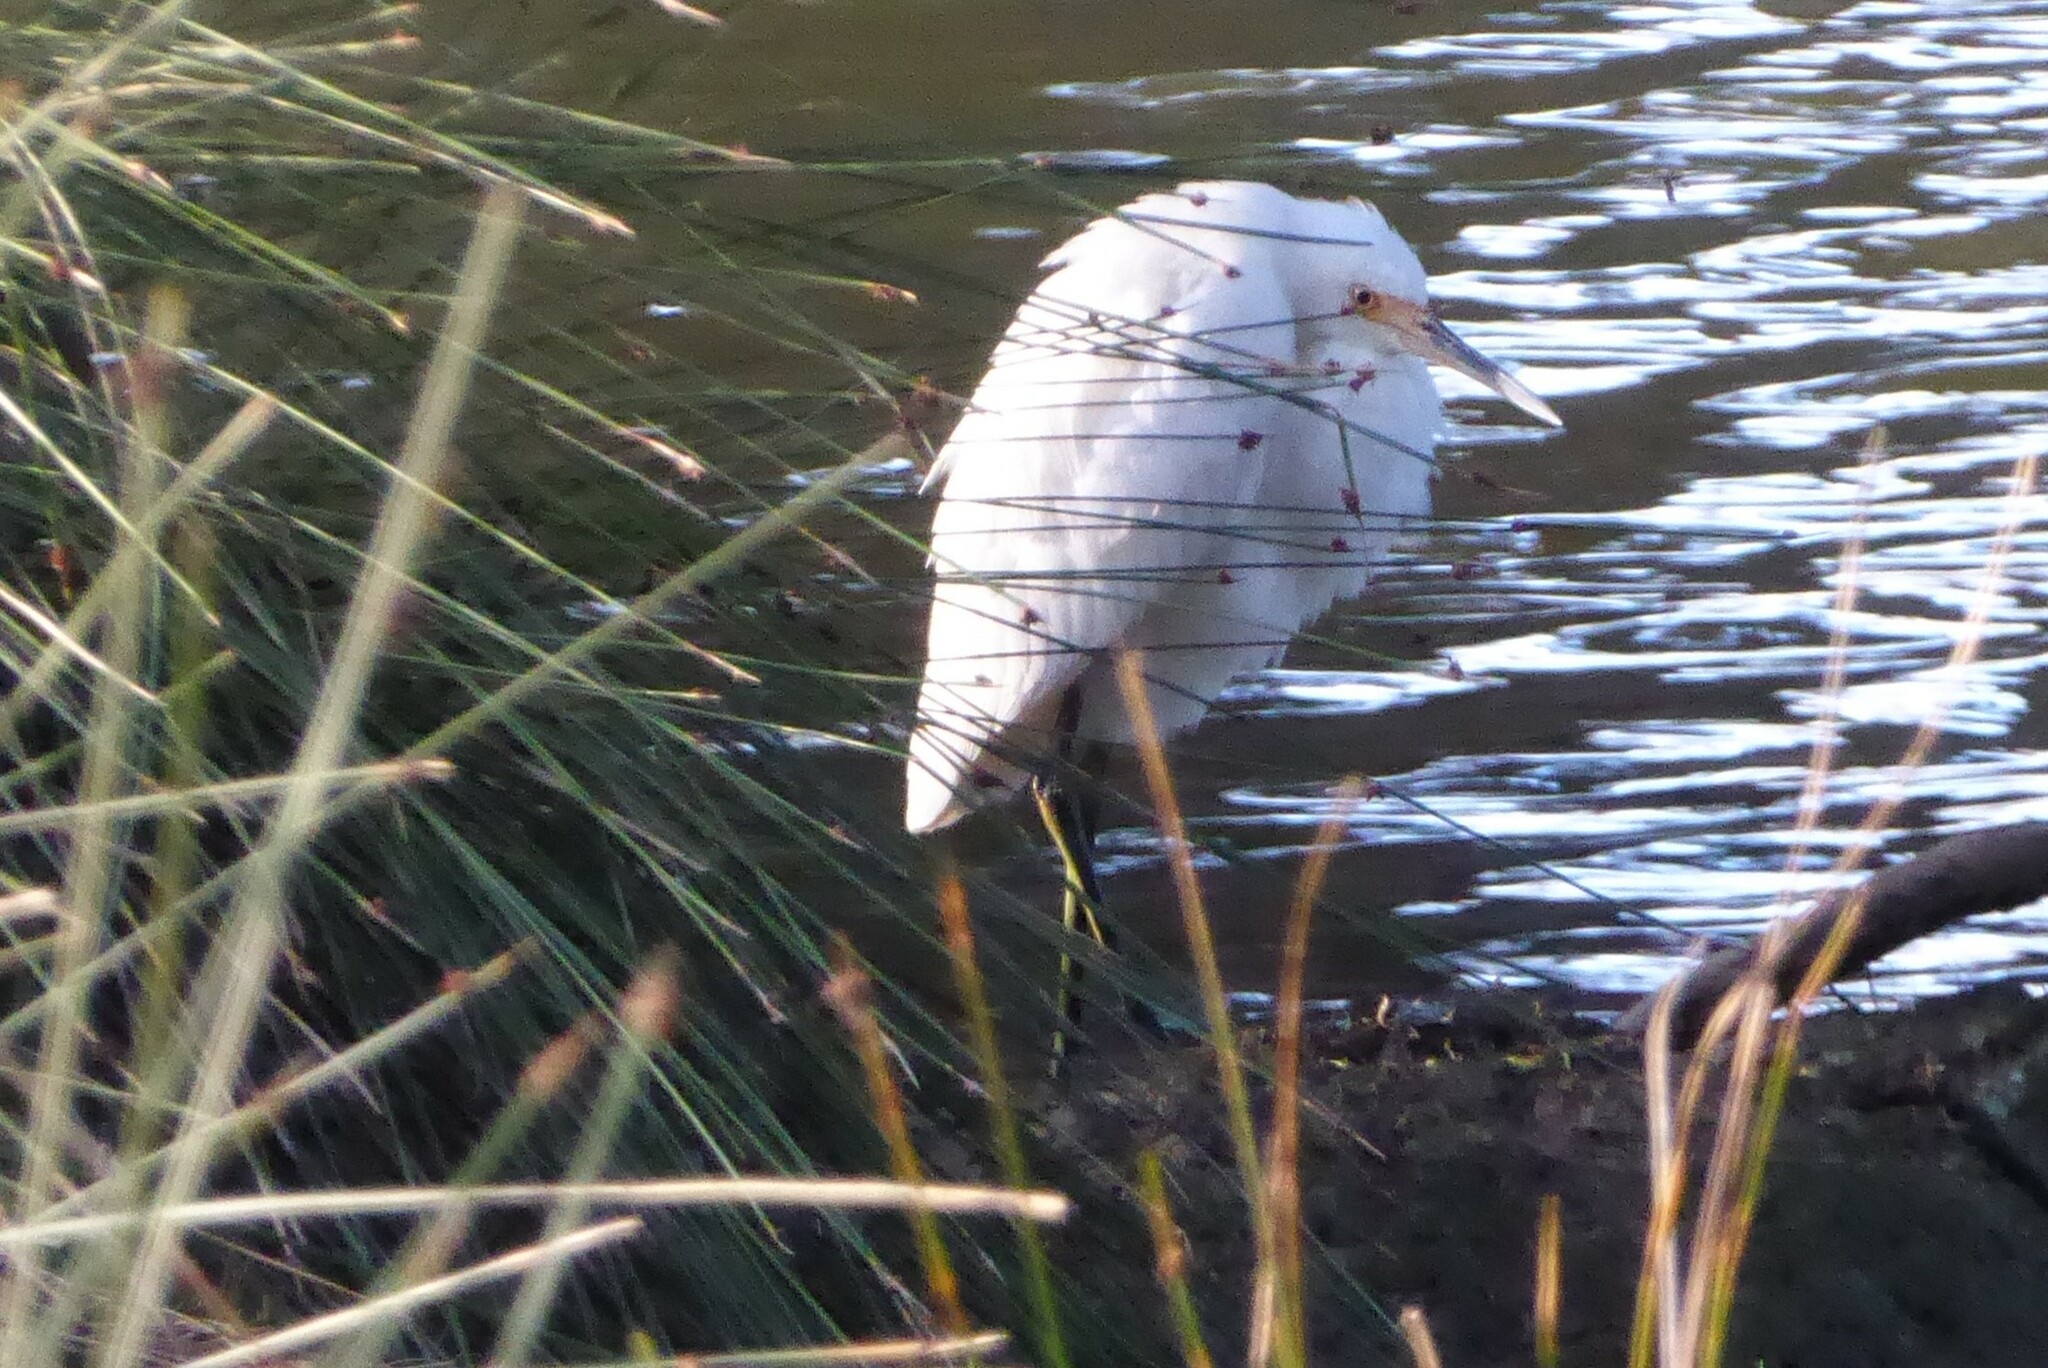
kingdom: Animalia
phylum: Chordata
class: Aves
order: Pelecaniformes
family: Ardeidae
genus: Egretta
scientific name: Egretta garzetta
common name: Little egret
